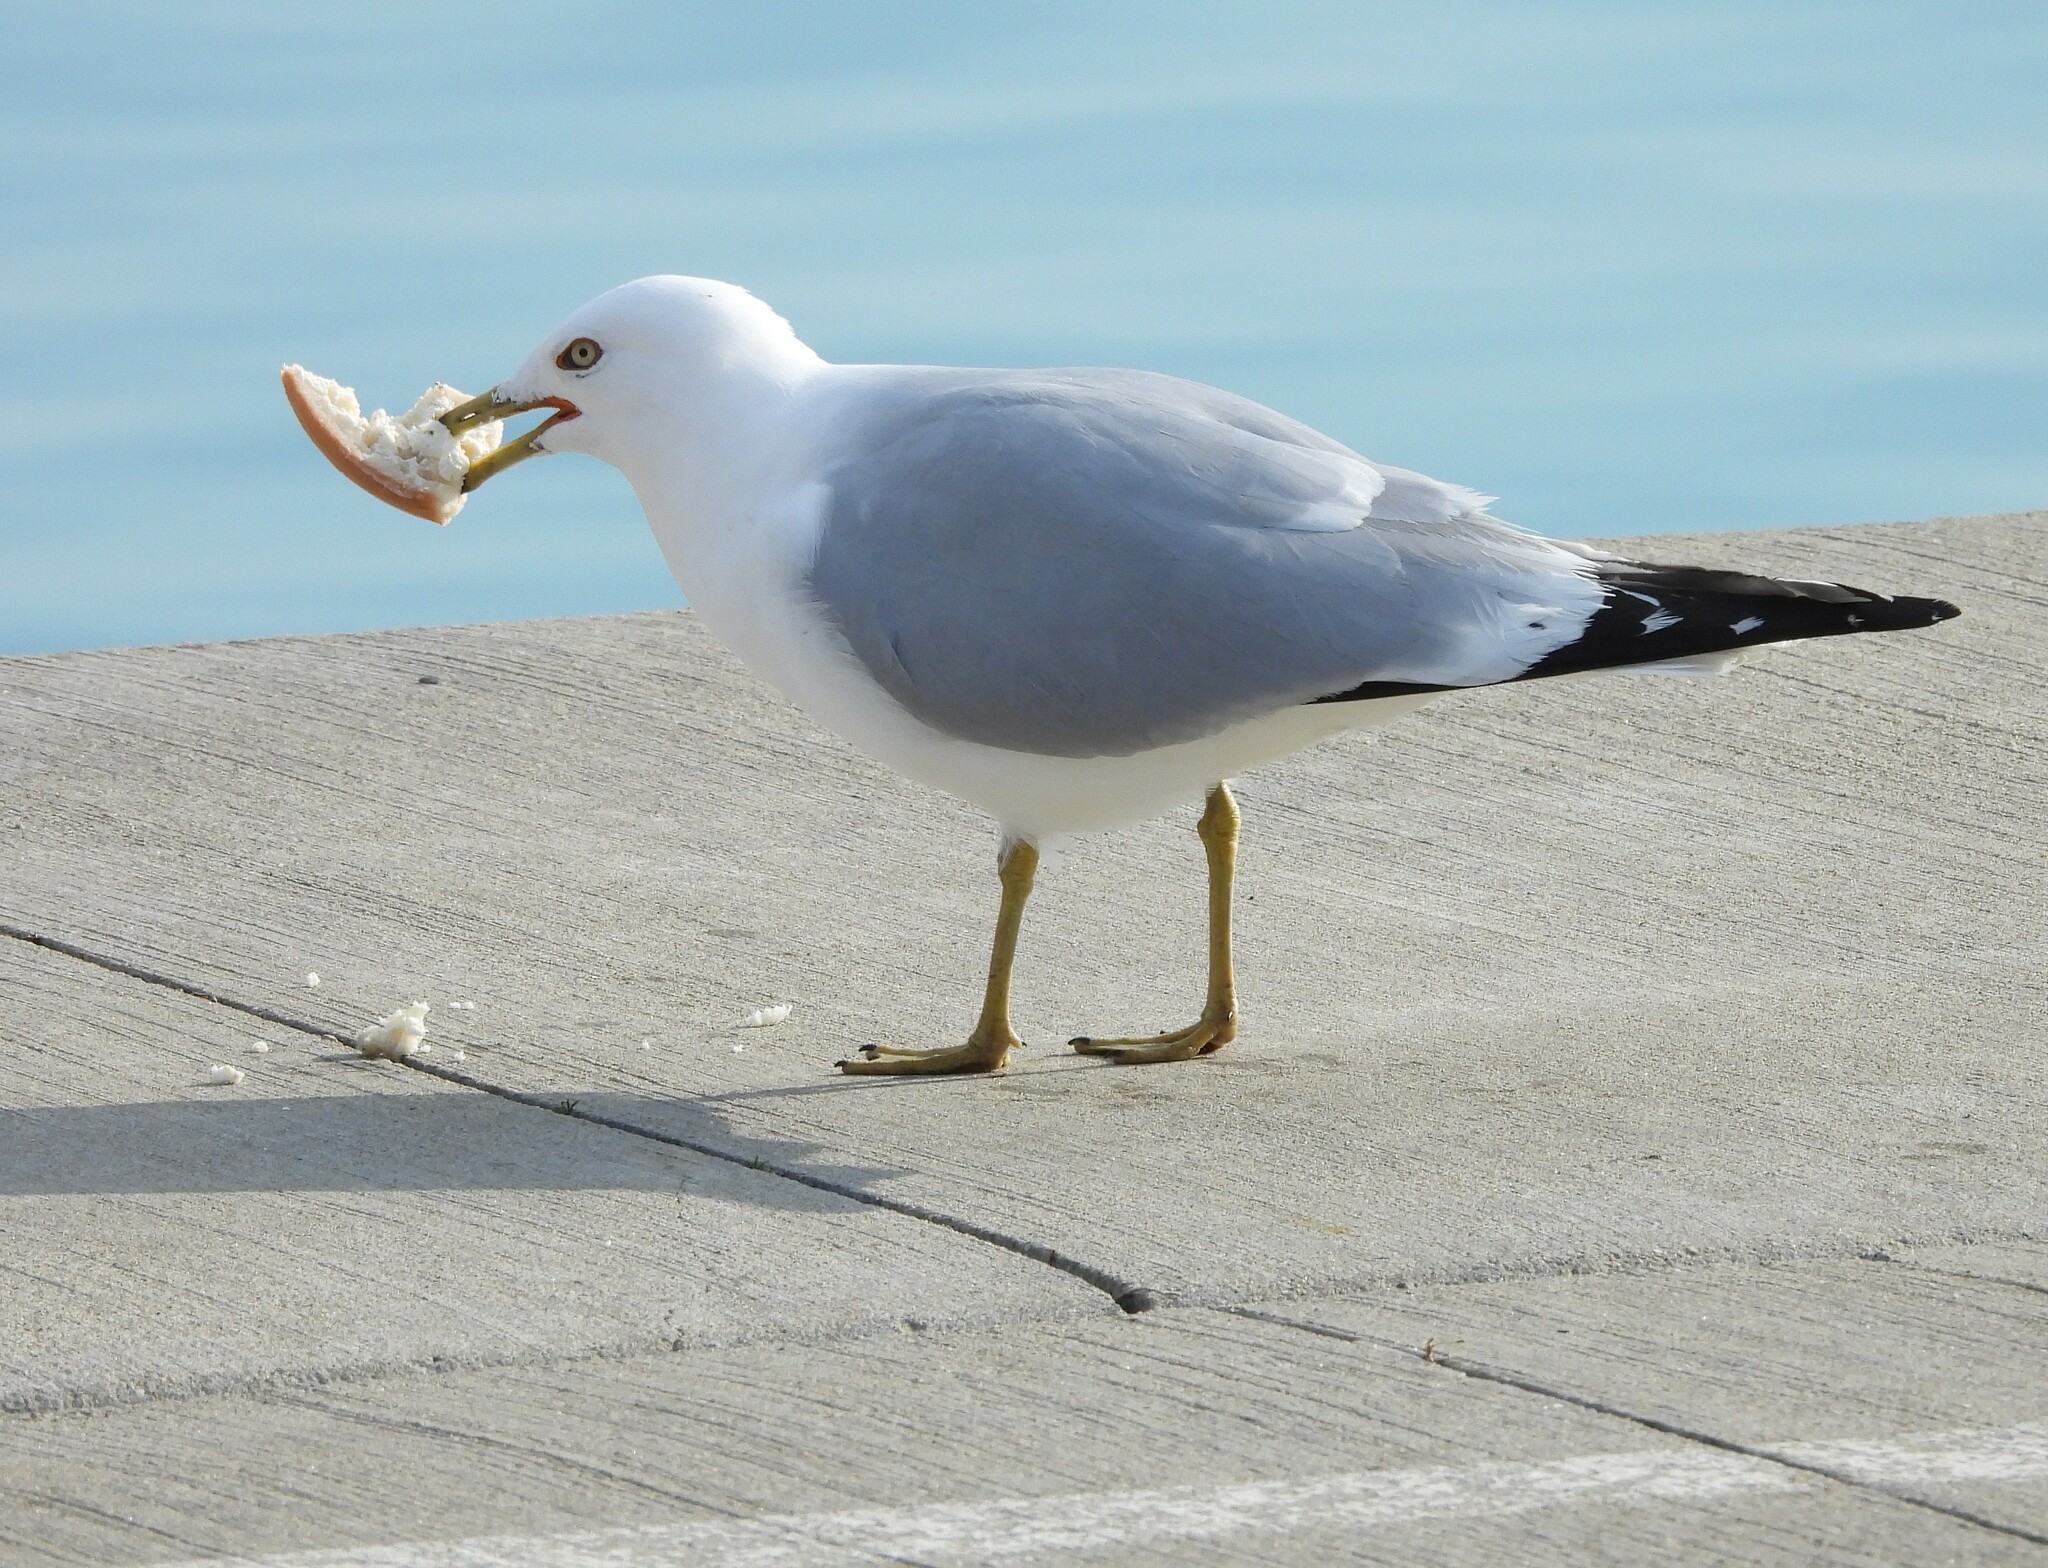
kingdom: Animalia
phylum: Chordata
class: Aves
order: Charadriiformes
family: Laridae
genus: Larus
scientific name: Larus delawarensis
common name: Ring-billed gull
